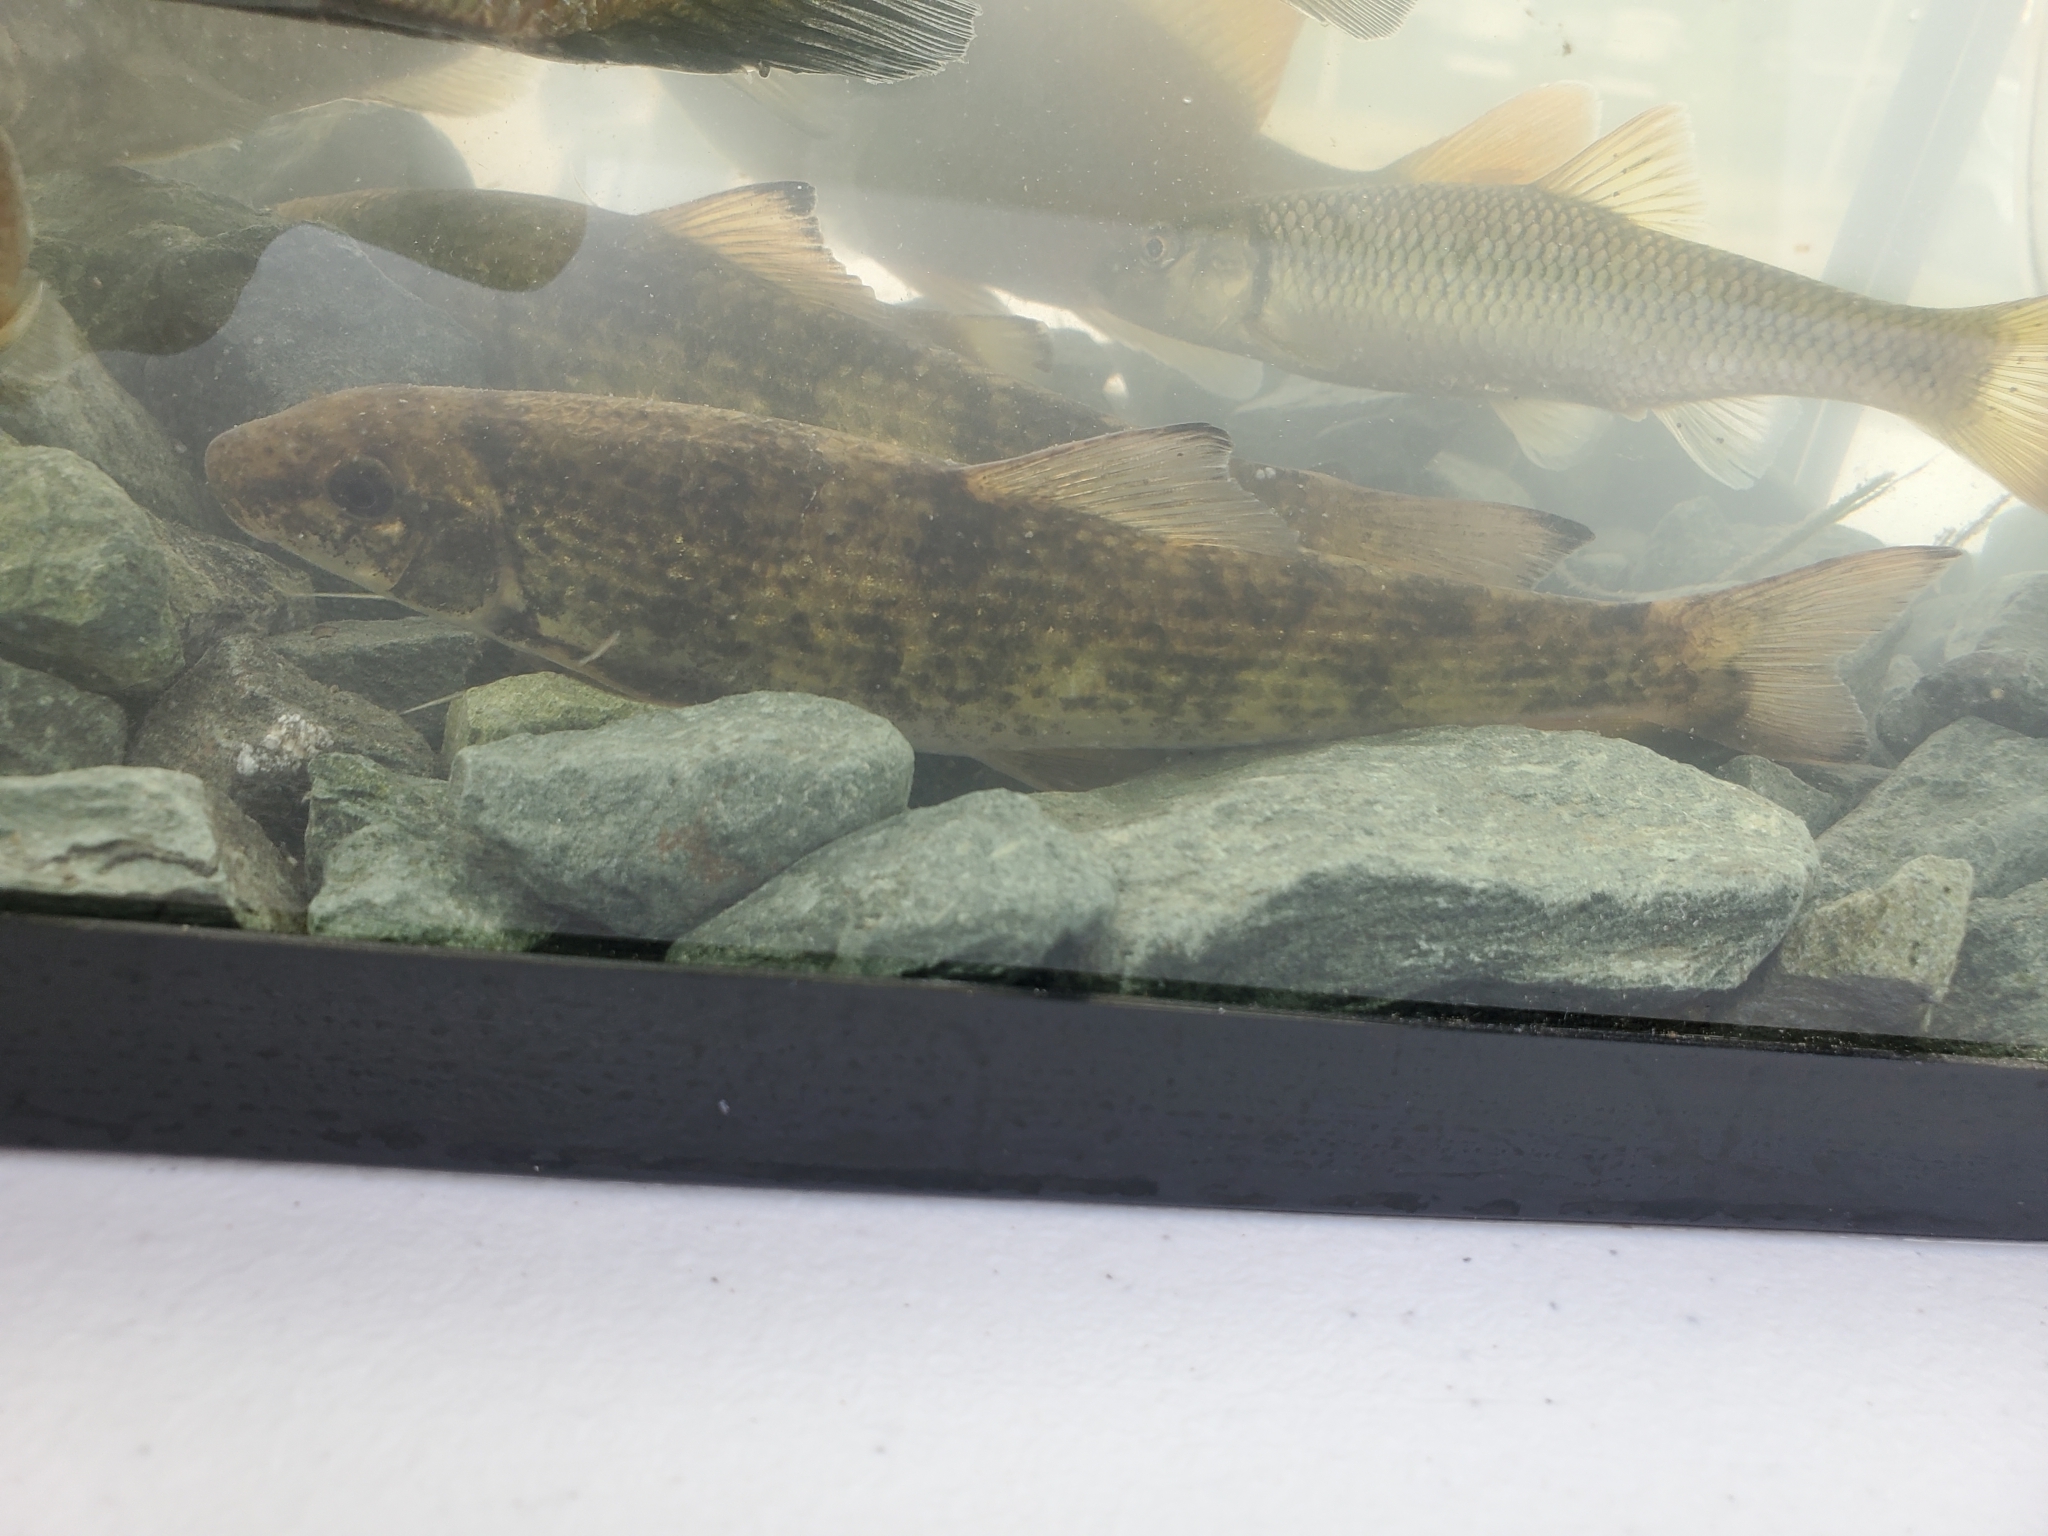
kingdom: Animalia
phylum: Chordata
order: Cypriniformes
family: Catostomidae
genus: Moxostoma
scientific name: Moxostoma cervinum
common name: Blacktip jumprock
